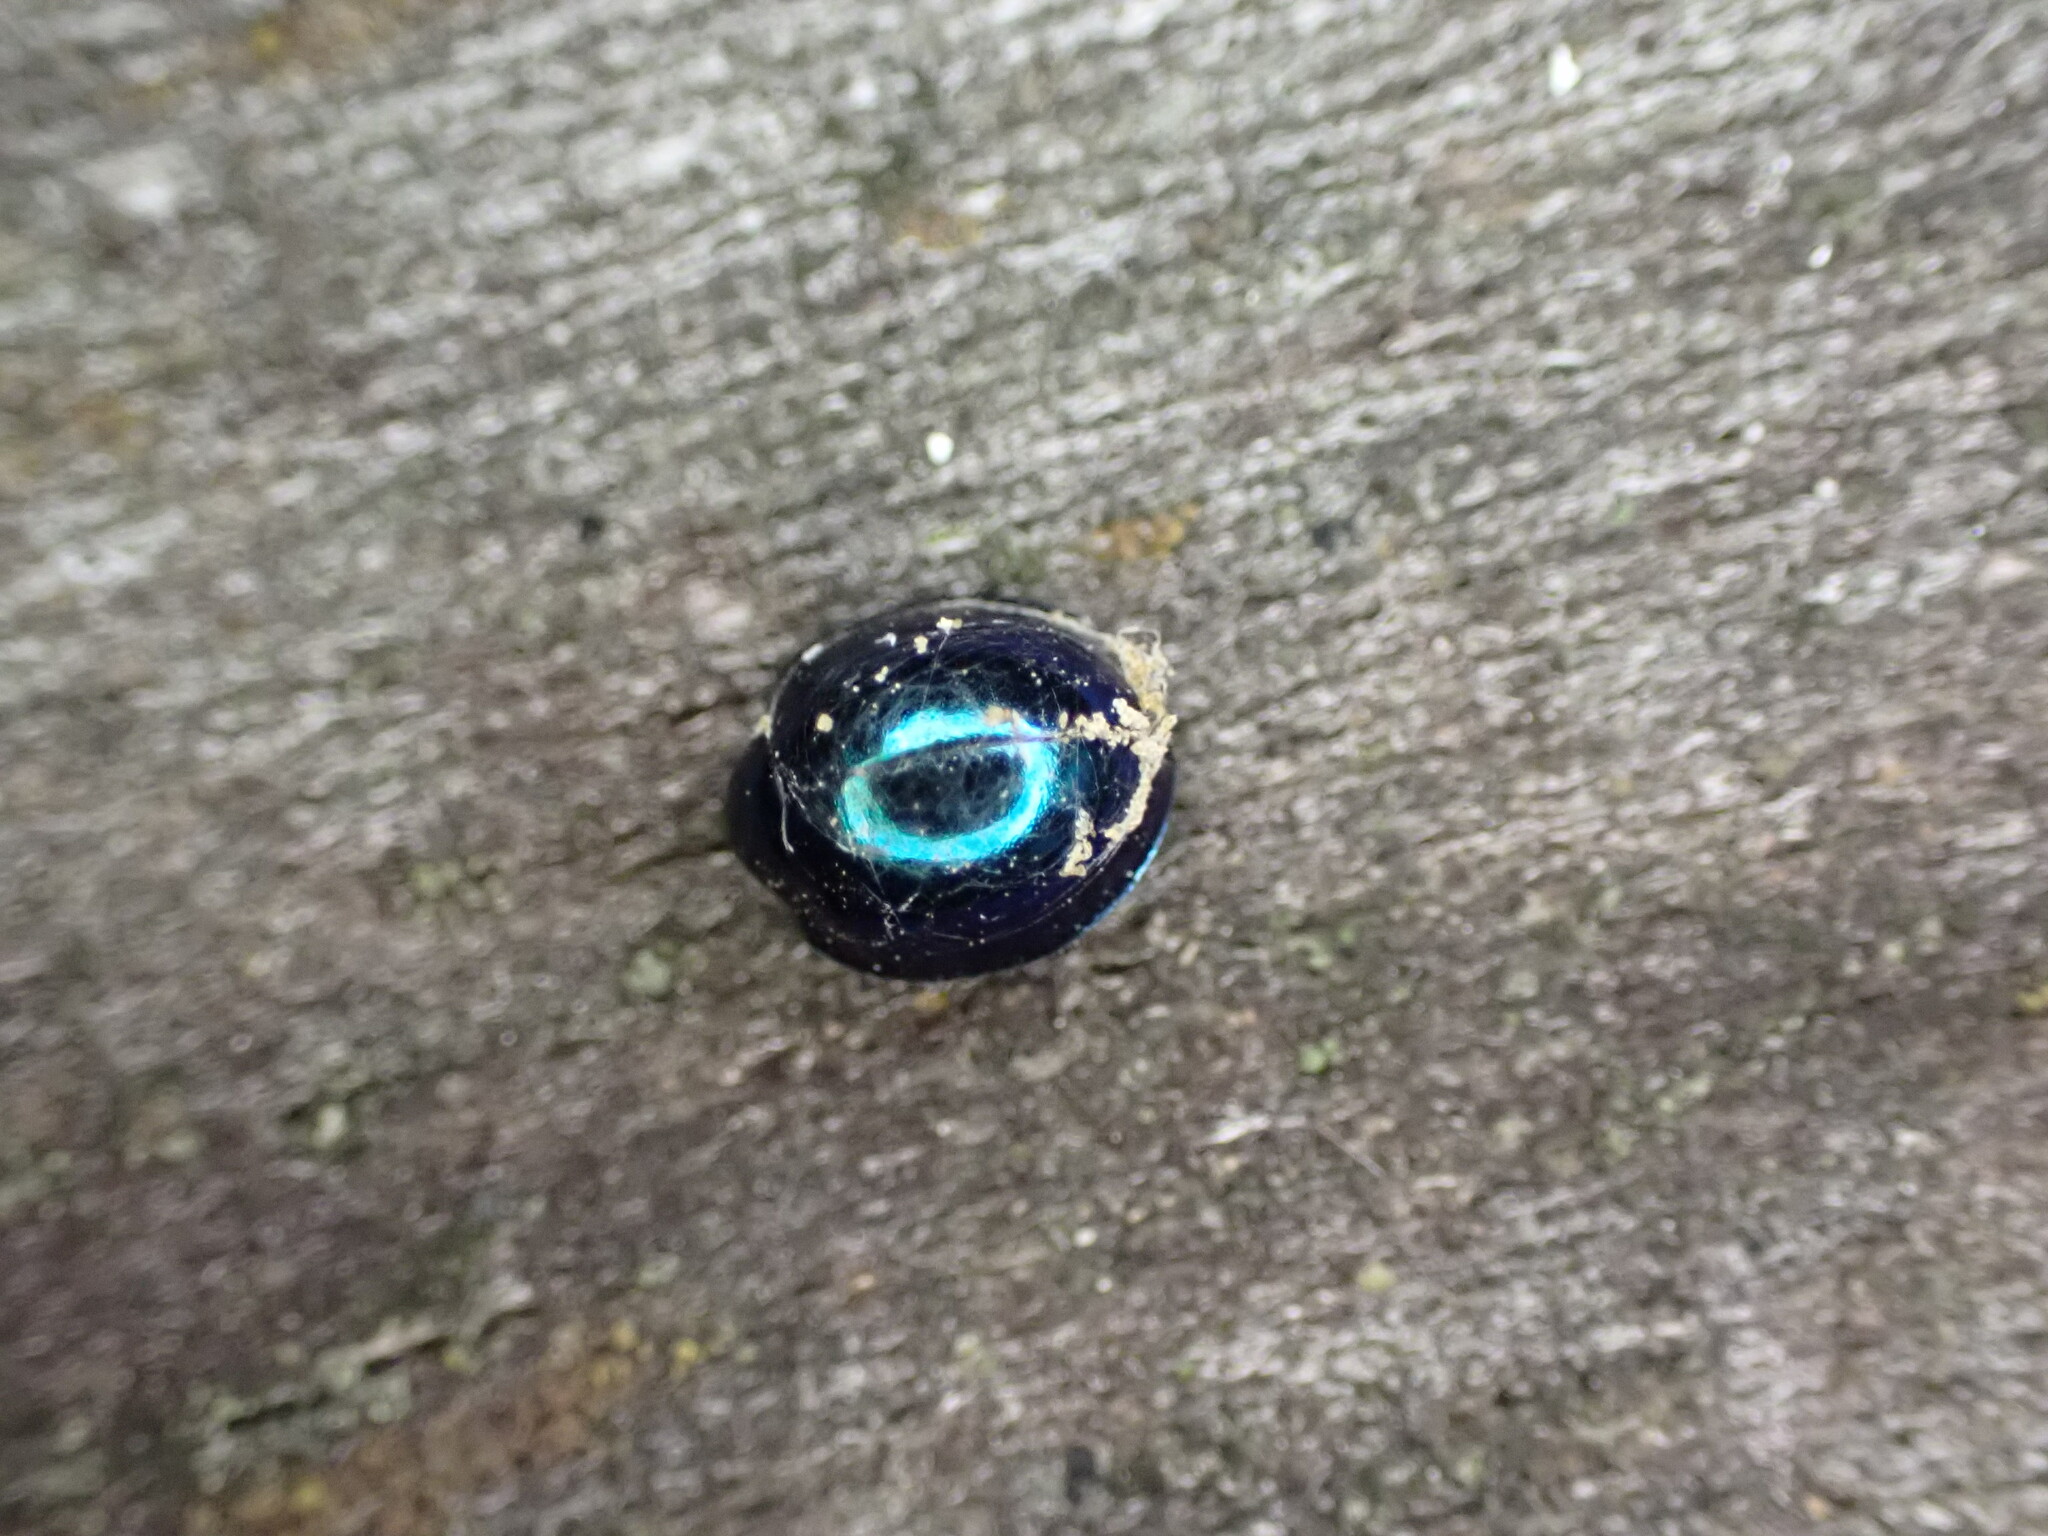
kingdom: Animalia
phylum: Arthropoda
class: Insecta
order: Coleoptera
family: Coccinellidae
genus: Halmus
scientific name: Halmus chalybeus
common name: Steel blue ladybird beetle
